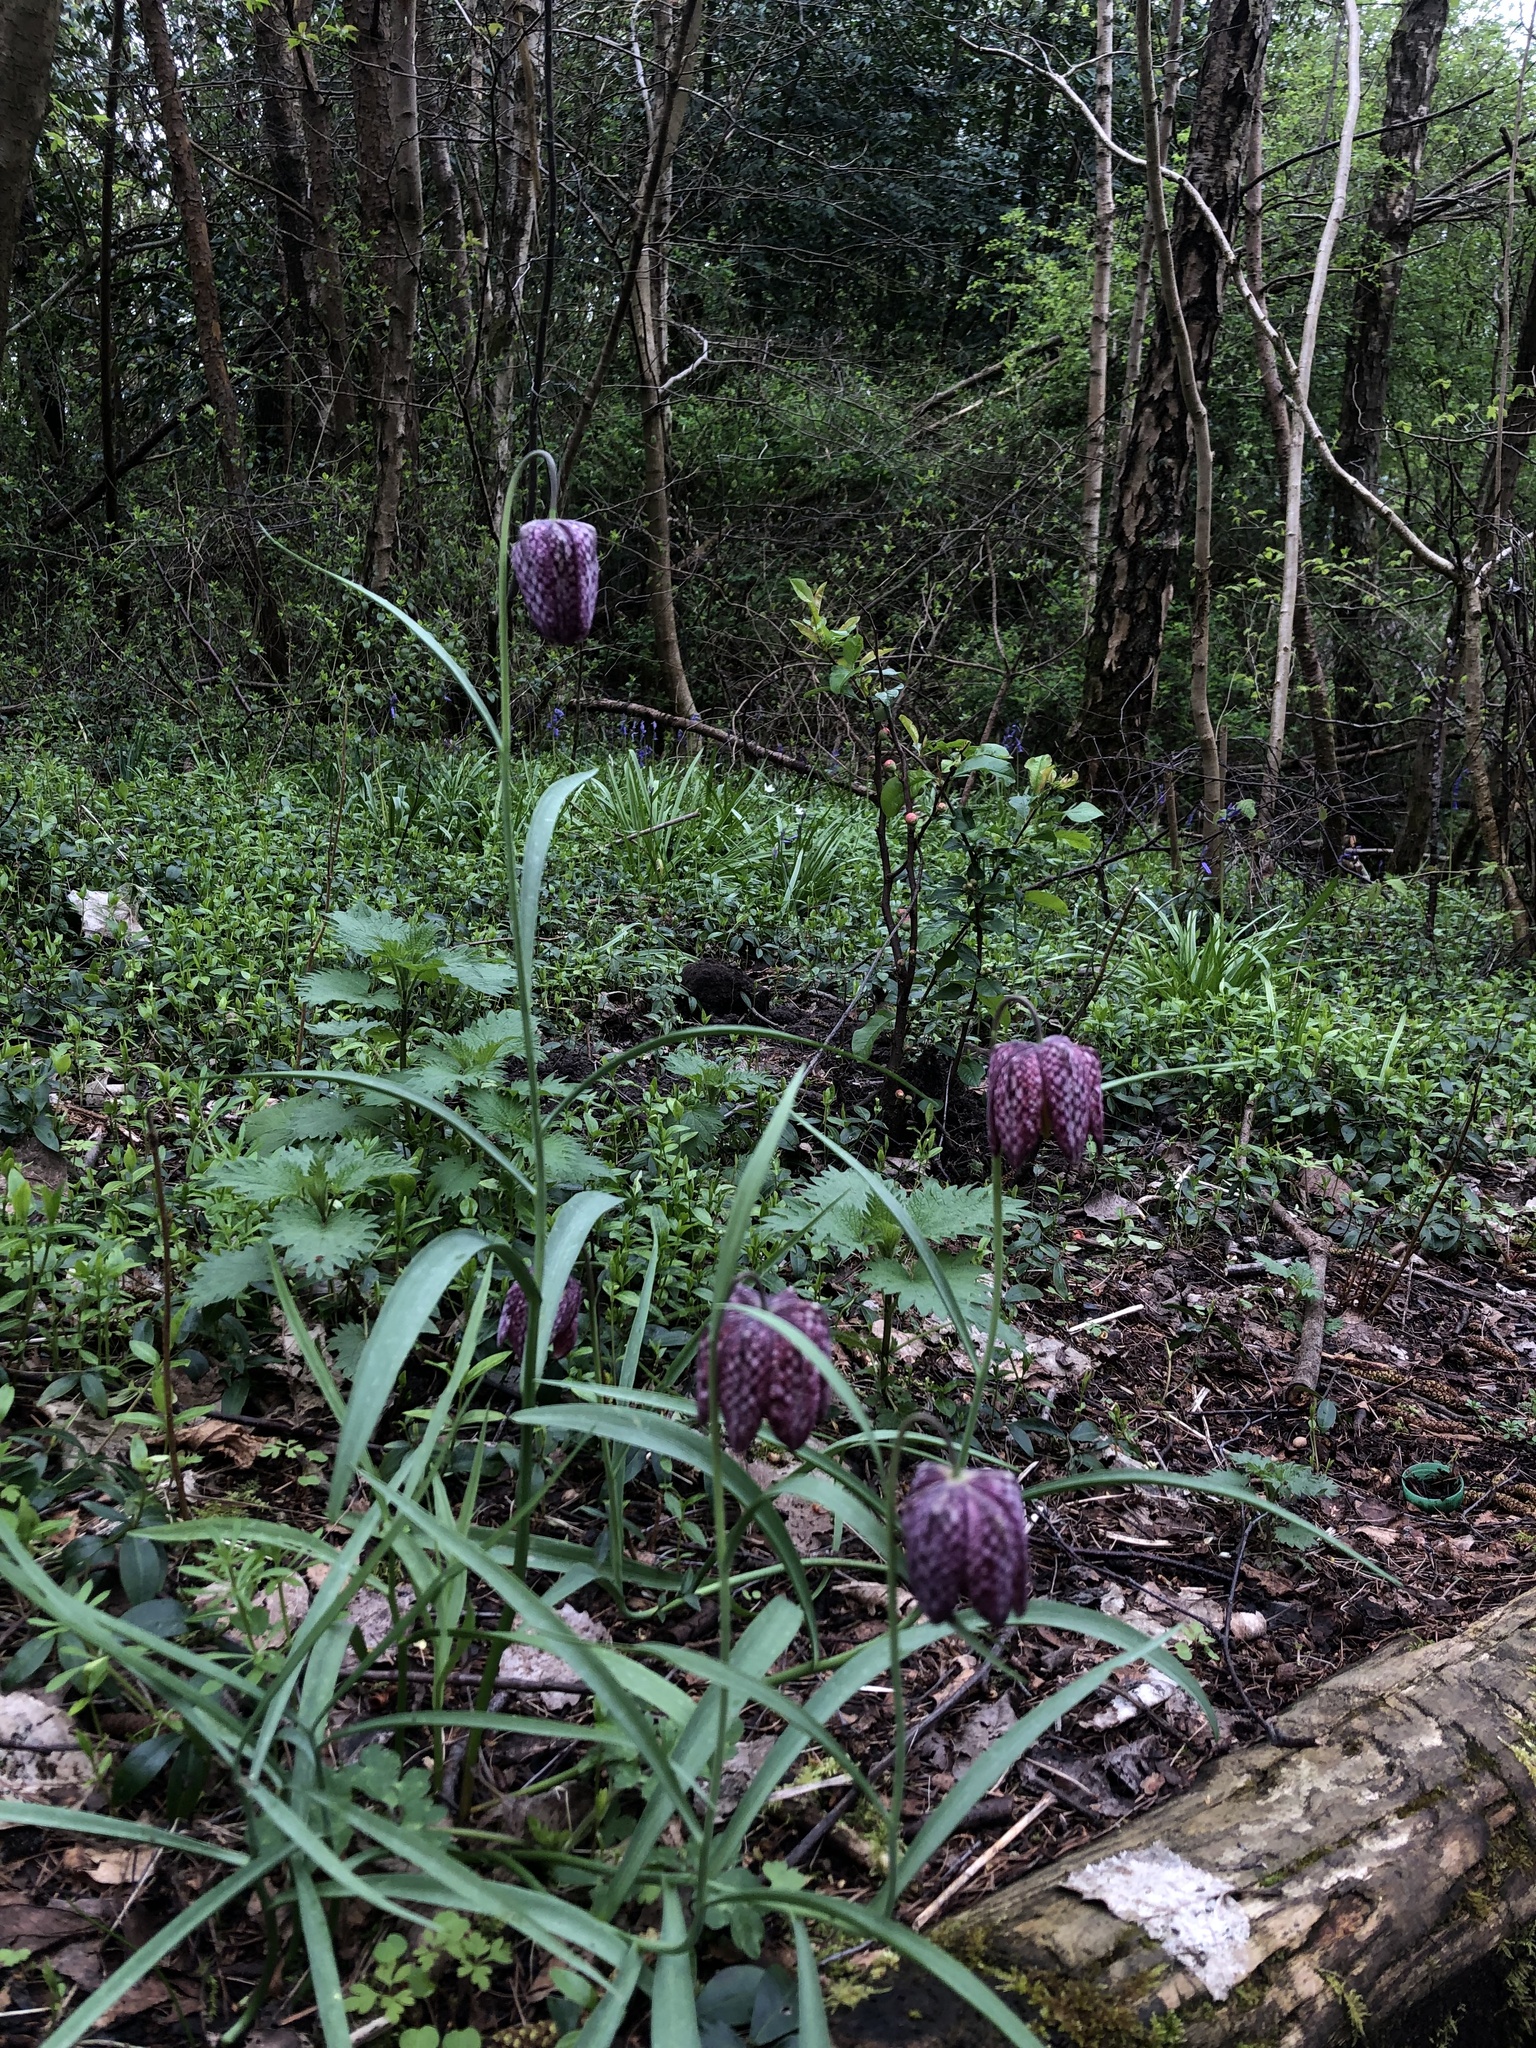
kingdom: Plantae
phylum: Tracheophyta
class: Liliopsida
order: Liliales
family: Liliaceae
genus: Fritillaria
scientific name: Fritillaria meleagris
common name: Fritillary
